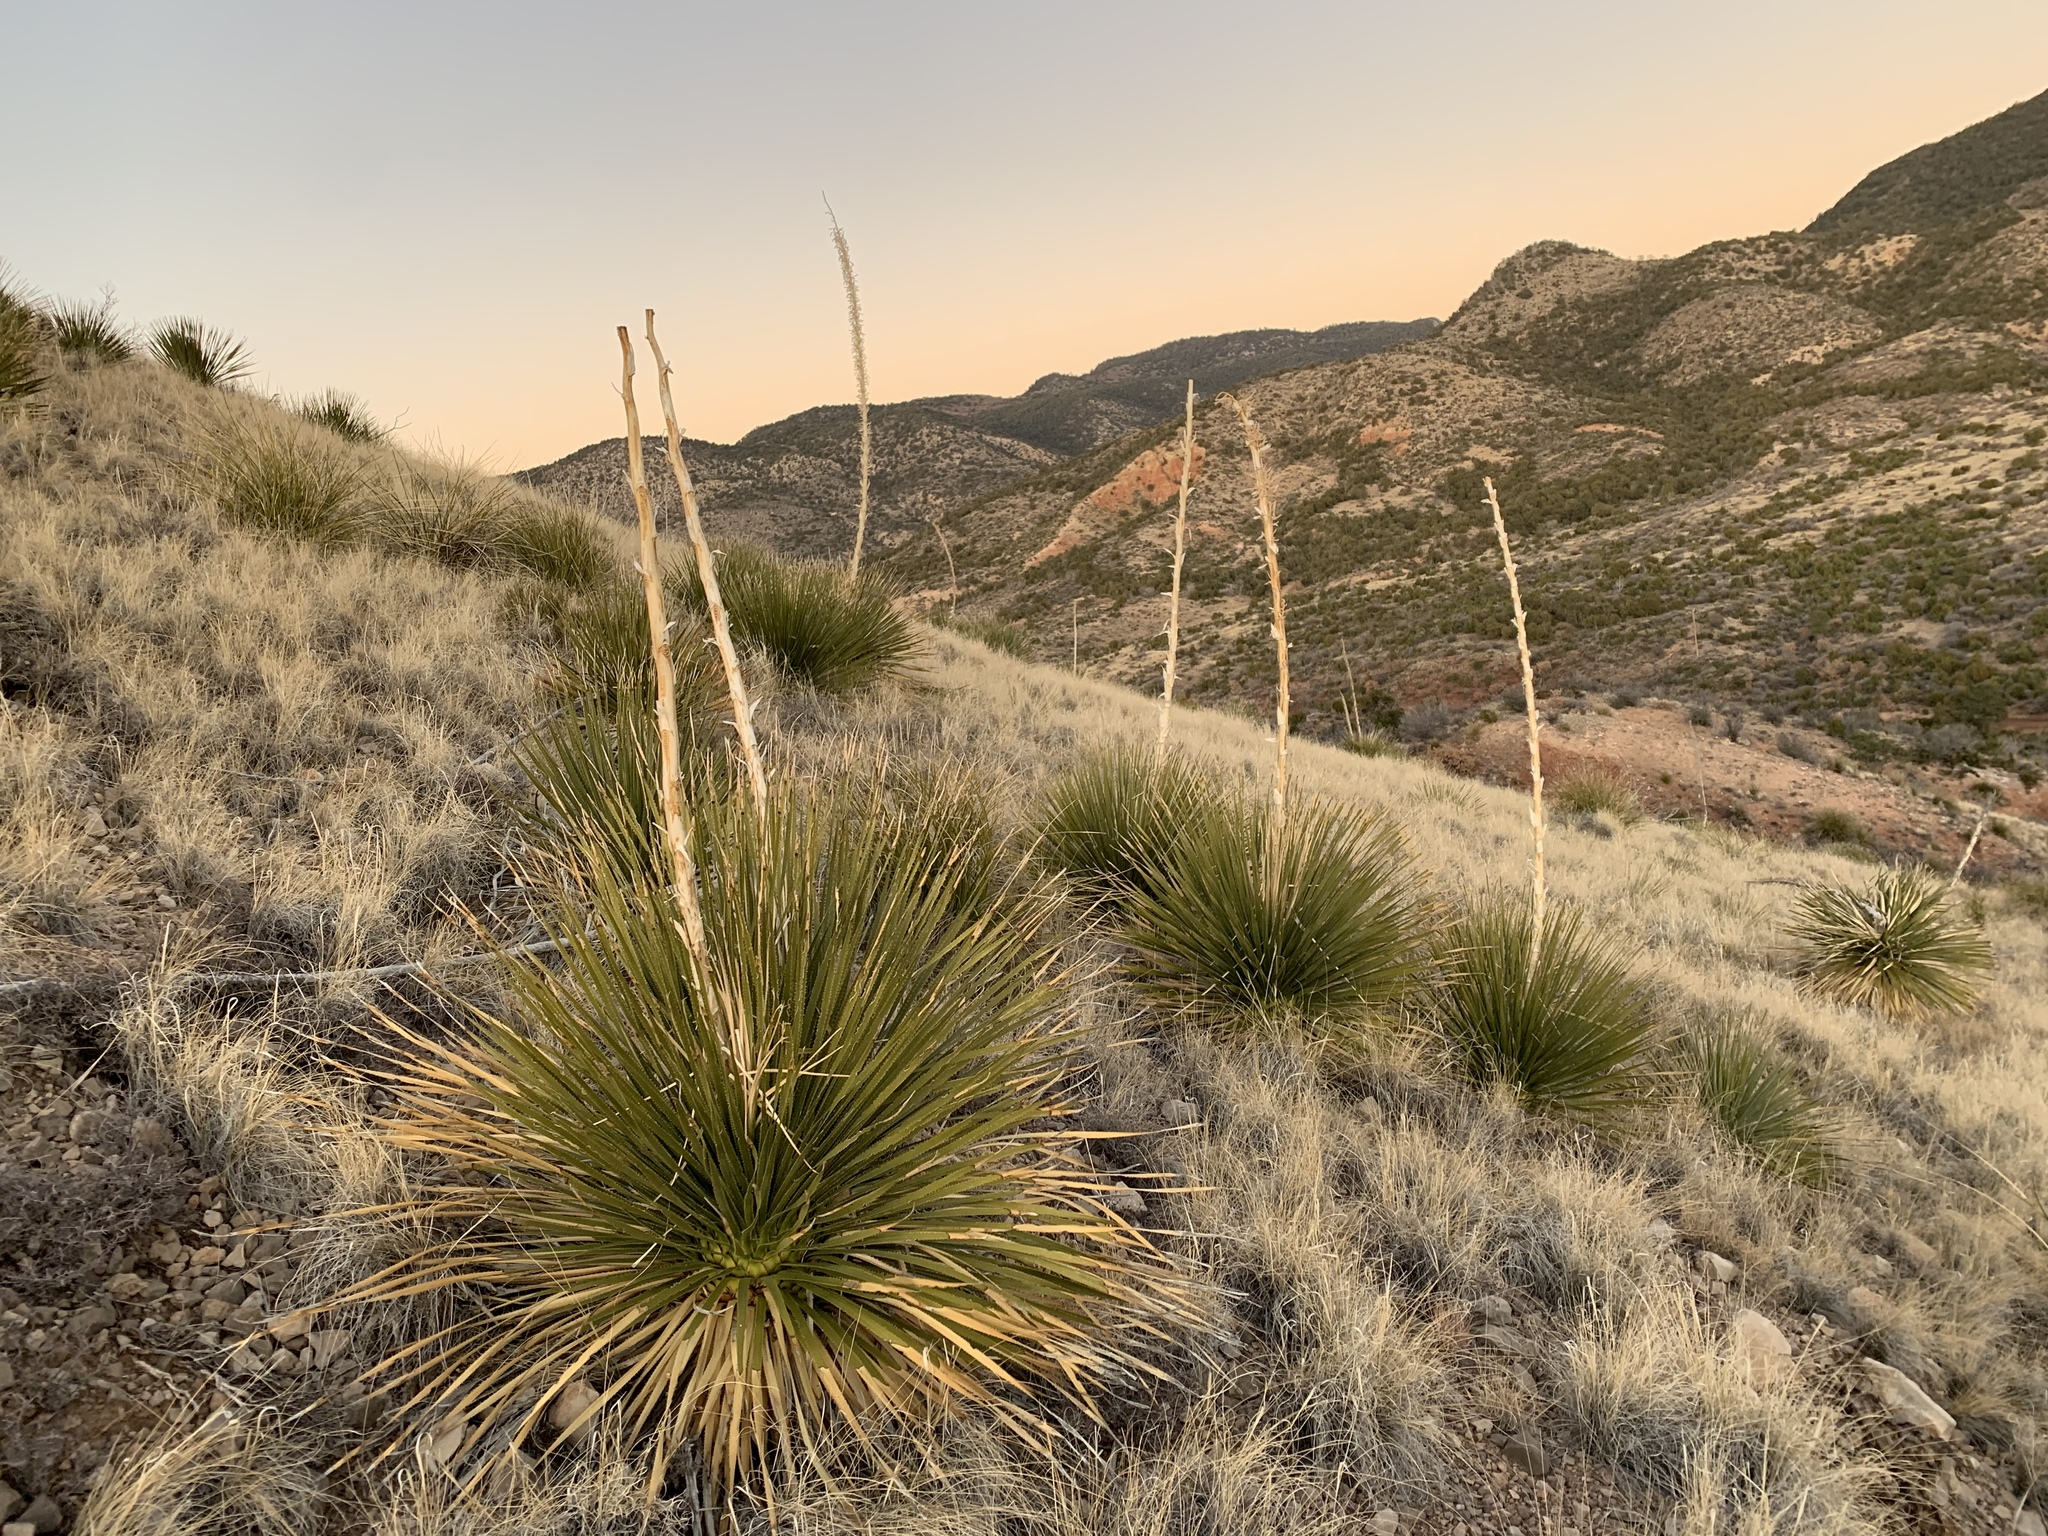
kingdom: Plantae
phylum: Tracheophyta
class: Liliopsida
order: Asparagales
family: Asparagaceae
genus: Dasylirion
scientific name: Dasylirion wheeleri
